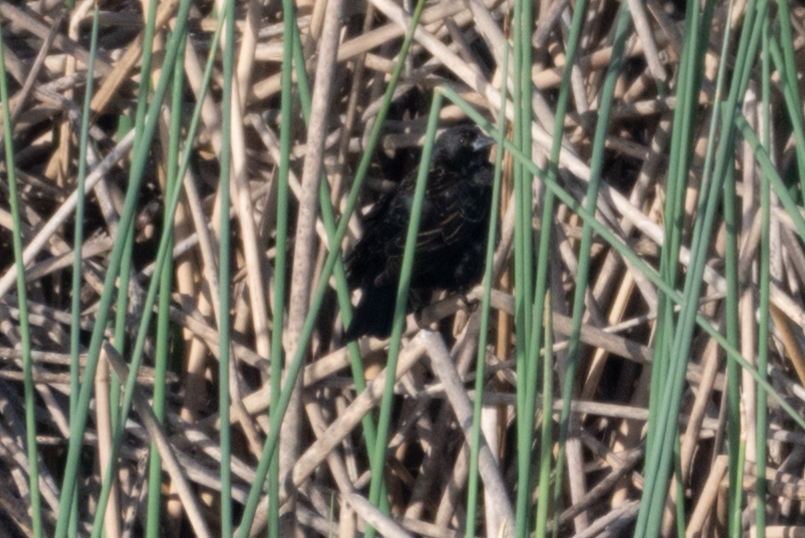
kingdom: Animalia
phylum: Chordata
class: Aves
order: Passeriformes
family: Icteridae
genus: Agelaius
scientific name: Agelaius phoeniceus
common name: Red-winged blackbird
